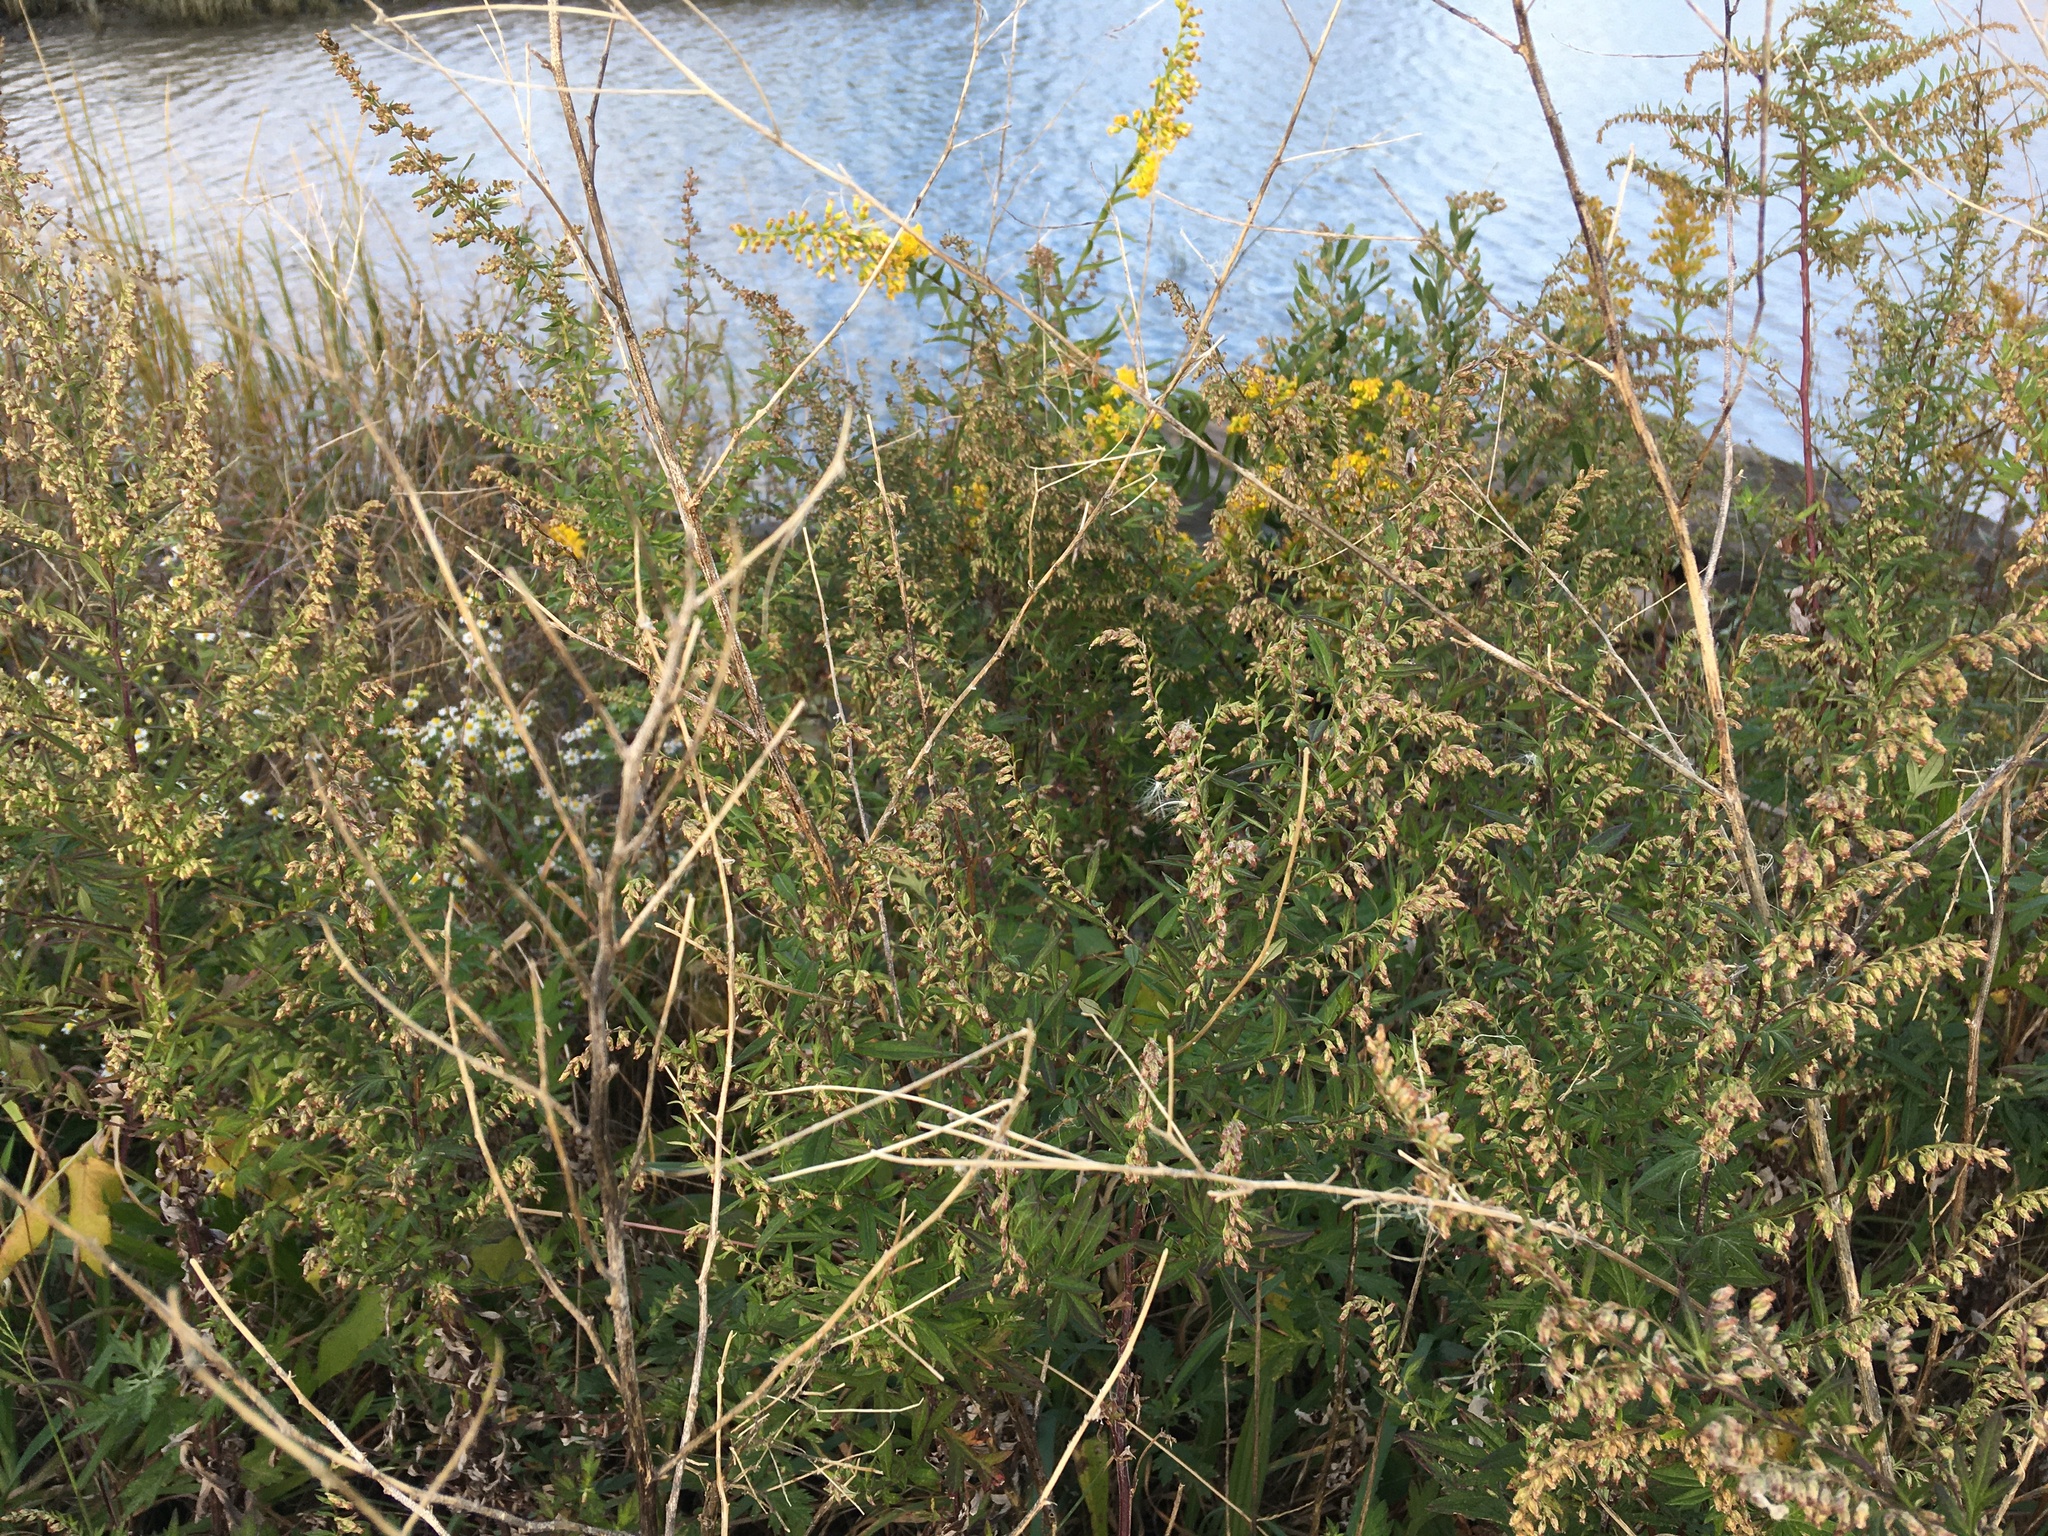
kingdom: Plantae
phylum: Tracheophyta
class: Magnoliopsida
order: Asterales
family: Asteraceae
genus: Artemisia
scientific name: Artemisia vulgaris
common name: Mugwort
